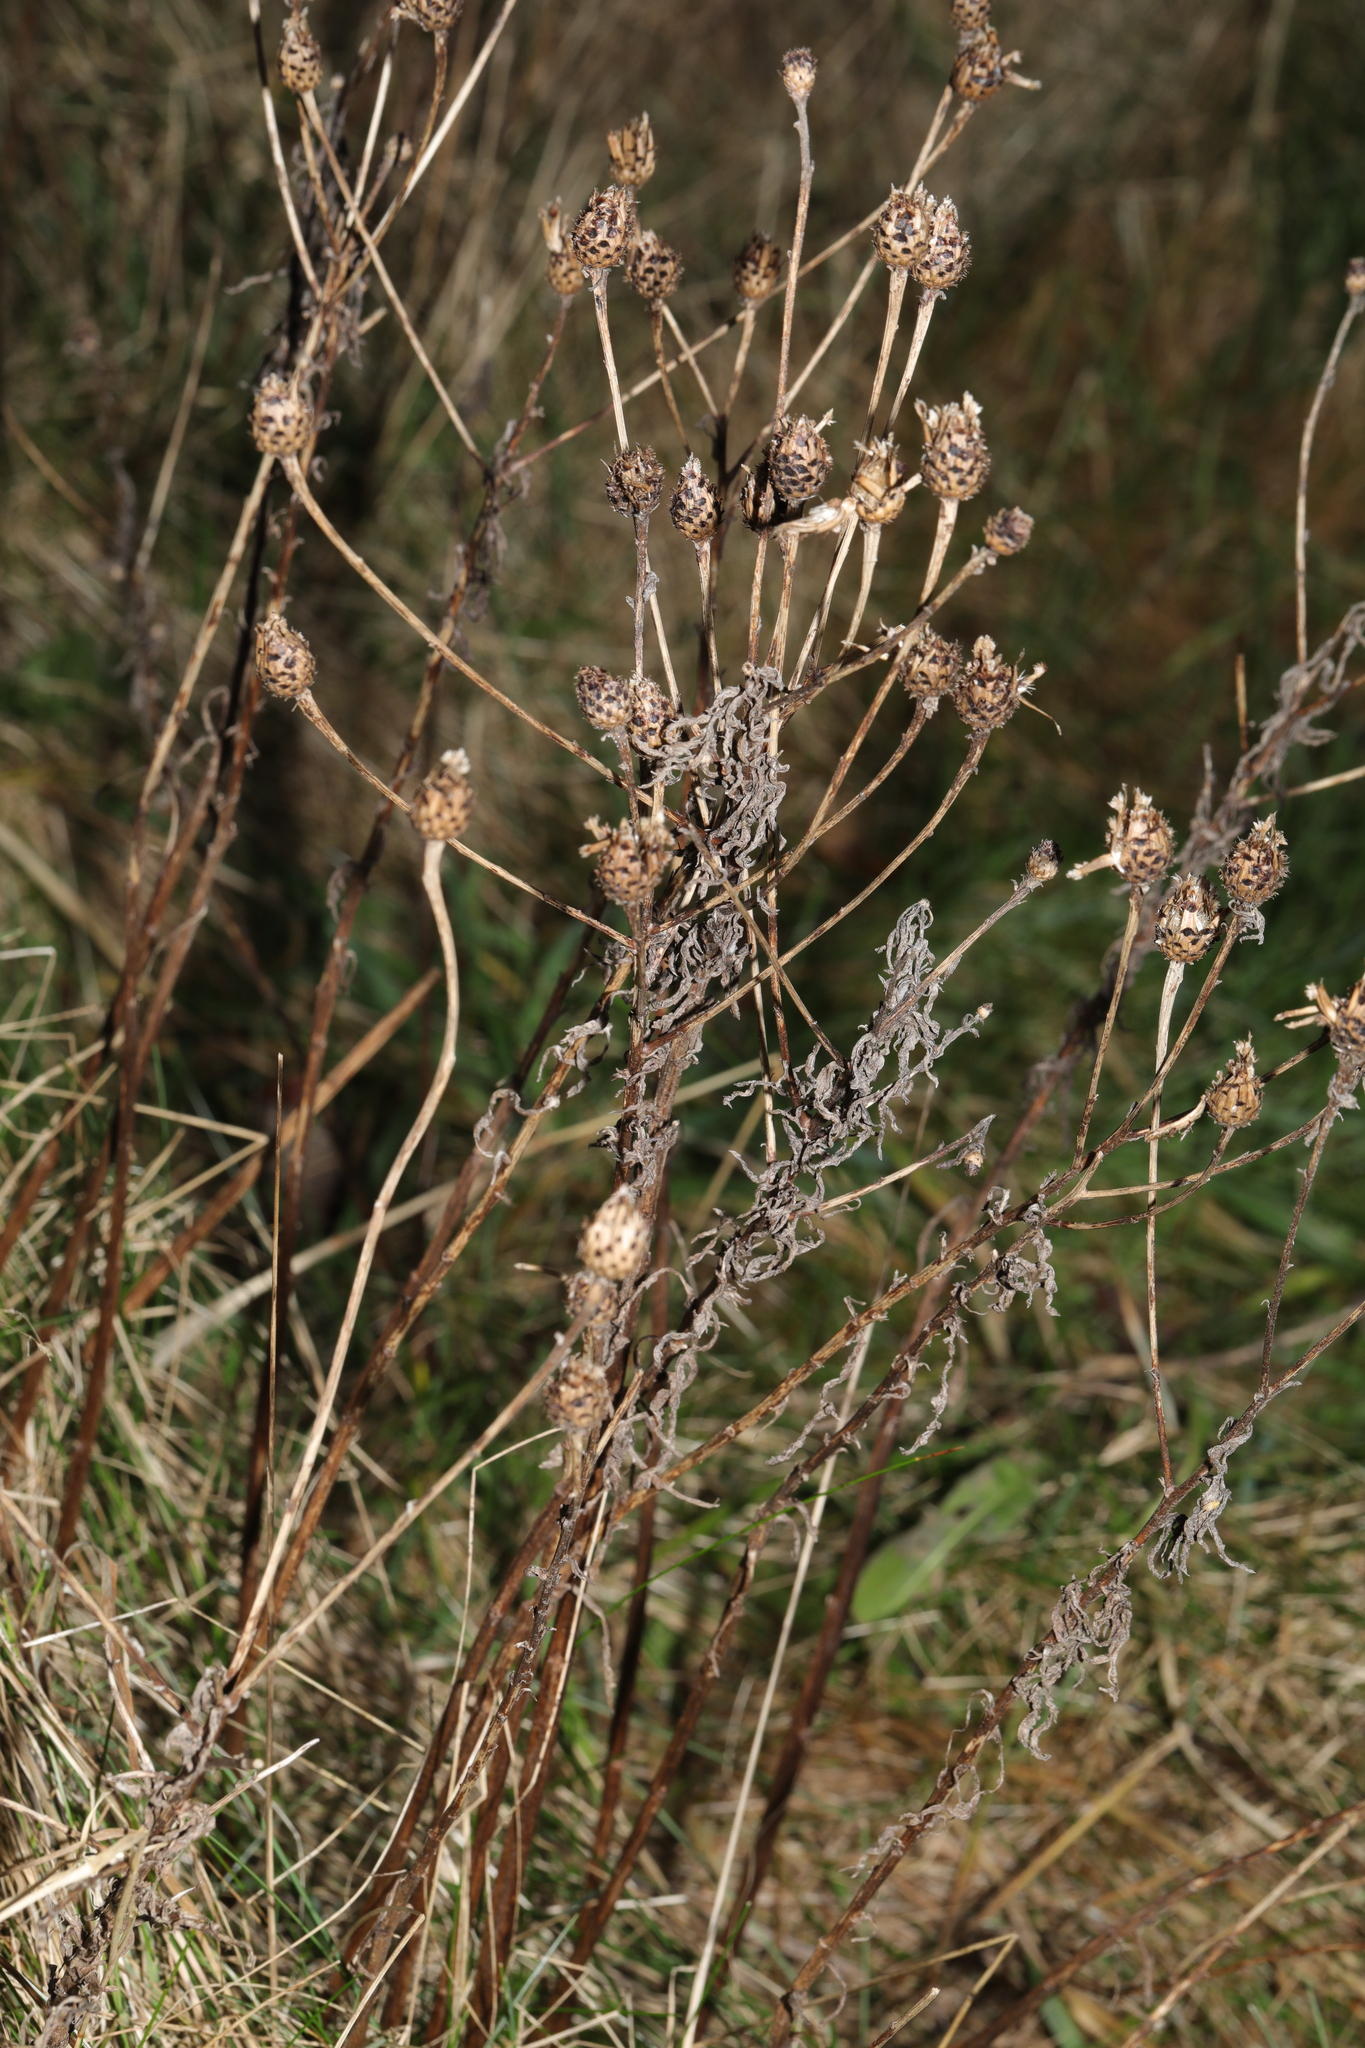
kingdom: Plantae
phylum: Tracheophyta
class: Magnoliopsida
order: Asterales
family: Asteraceae
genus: Centaurea
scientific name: Centaurea nigra
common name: Lesser knapweed
